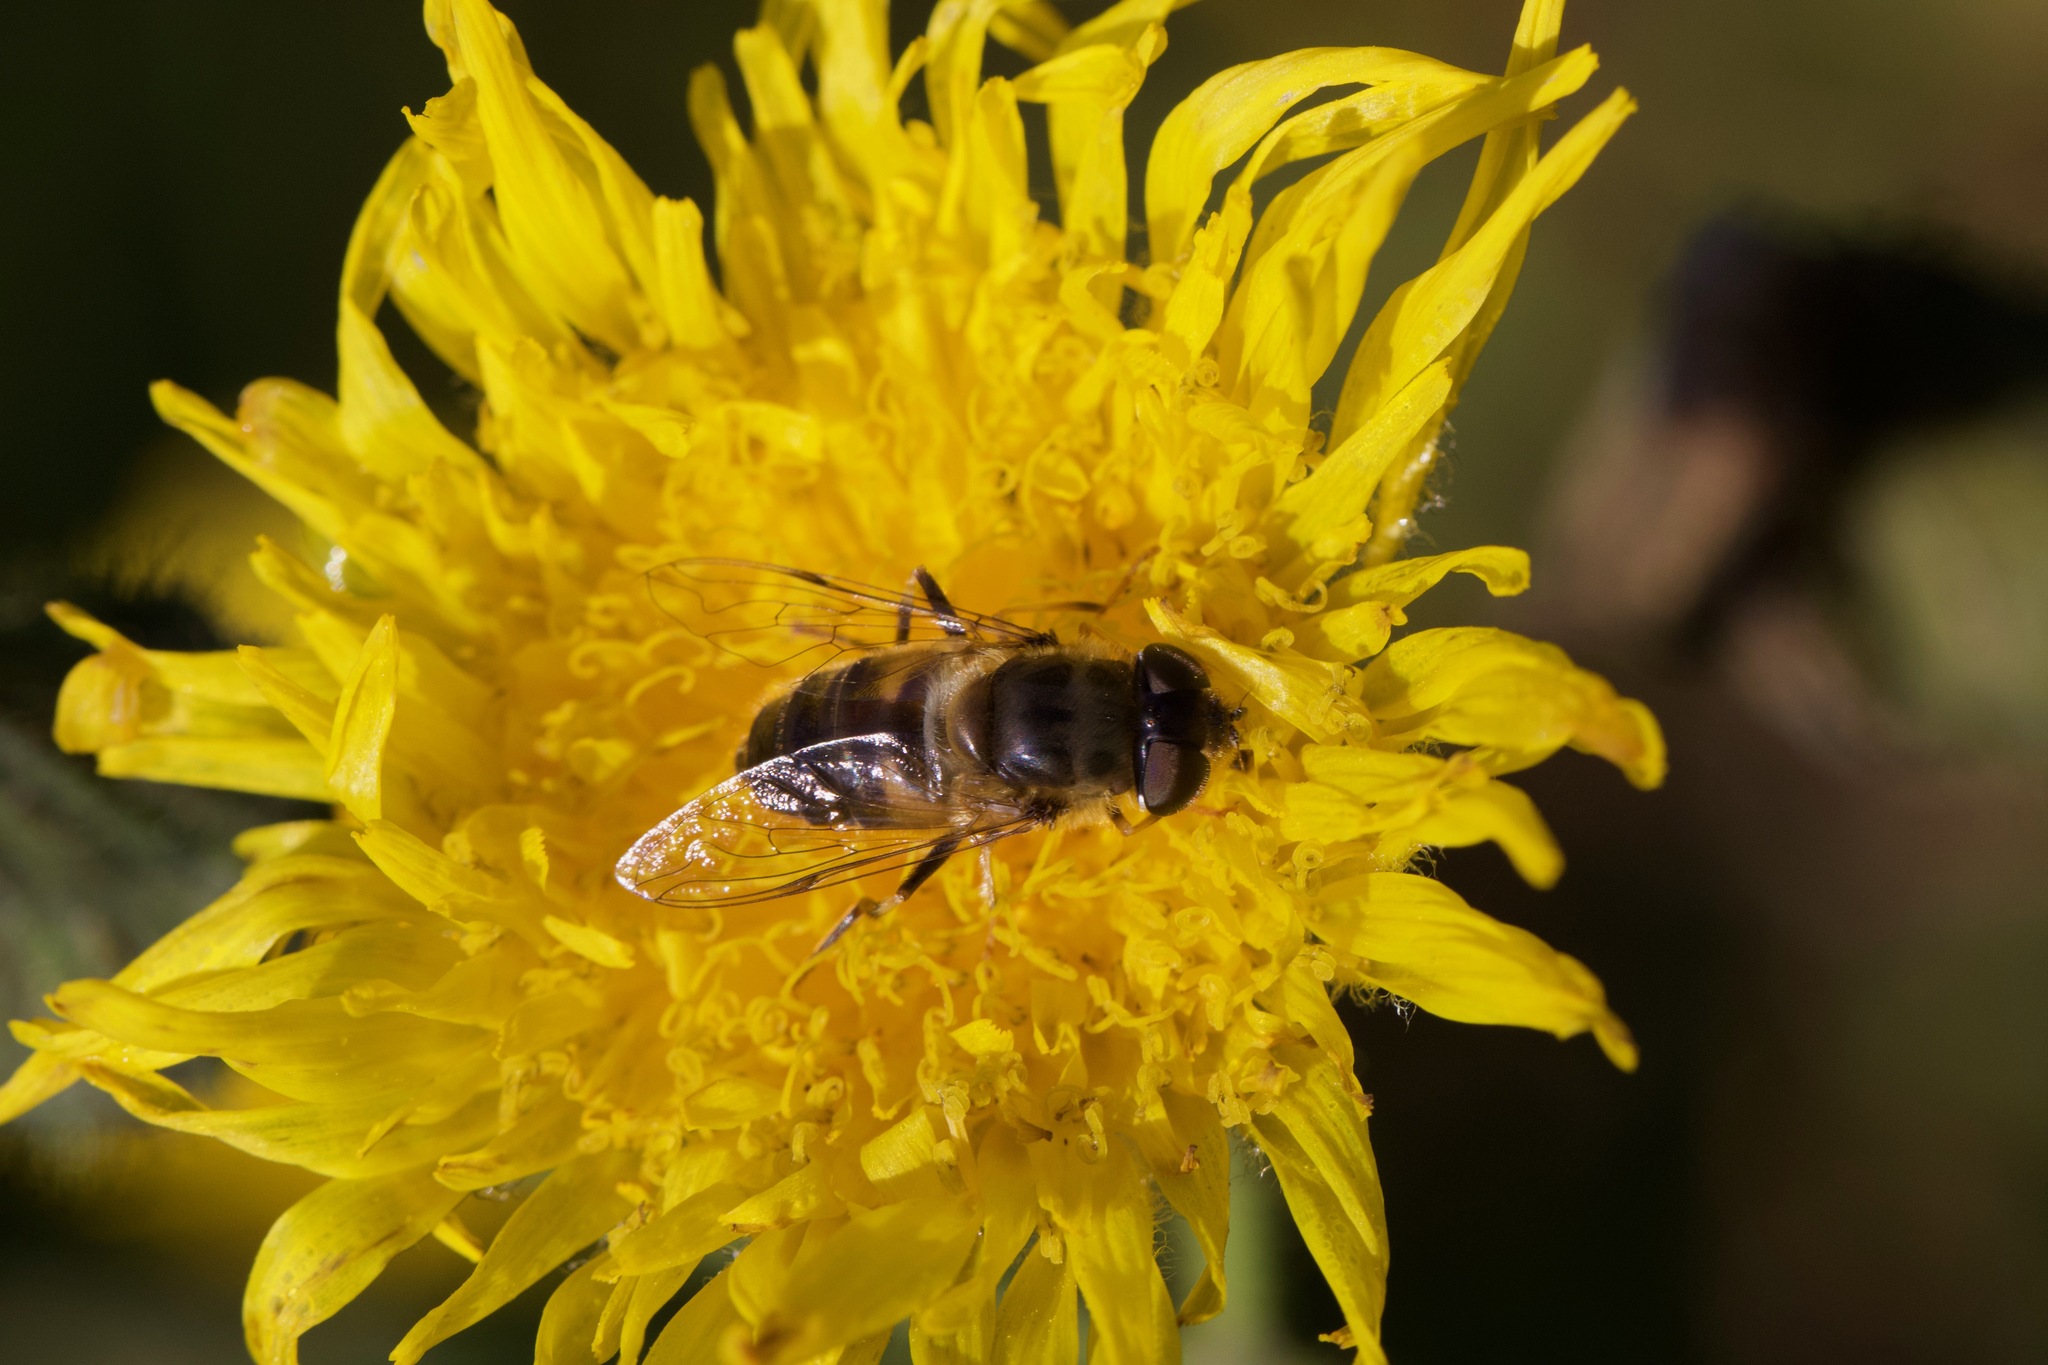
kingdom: Animalia
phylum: Arthropoda
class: Insecta
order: Diptera
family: Syrphidae
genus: Eristalis
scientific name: Eristalis pertinax
